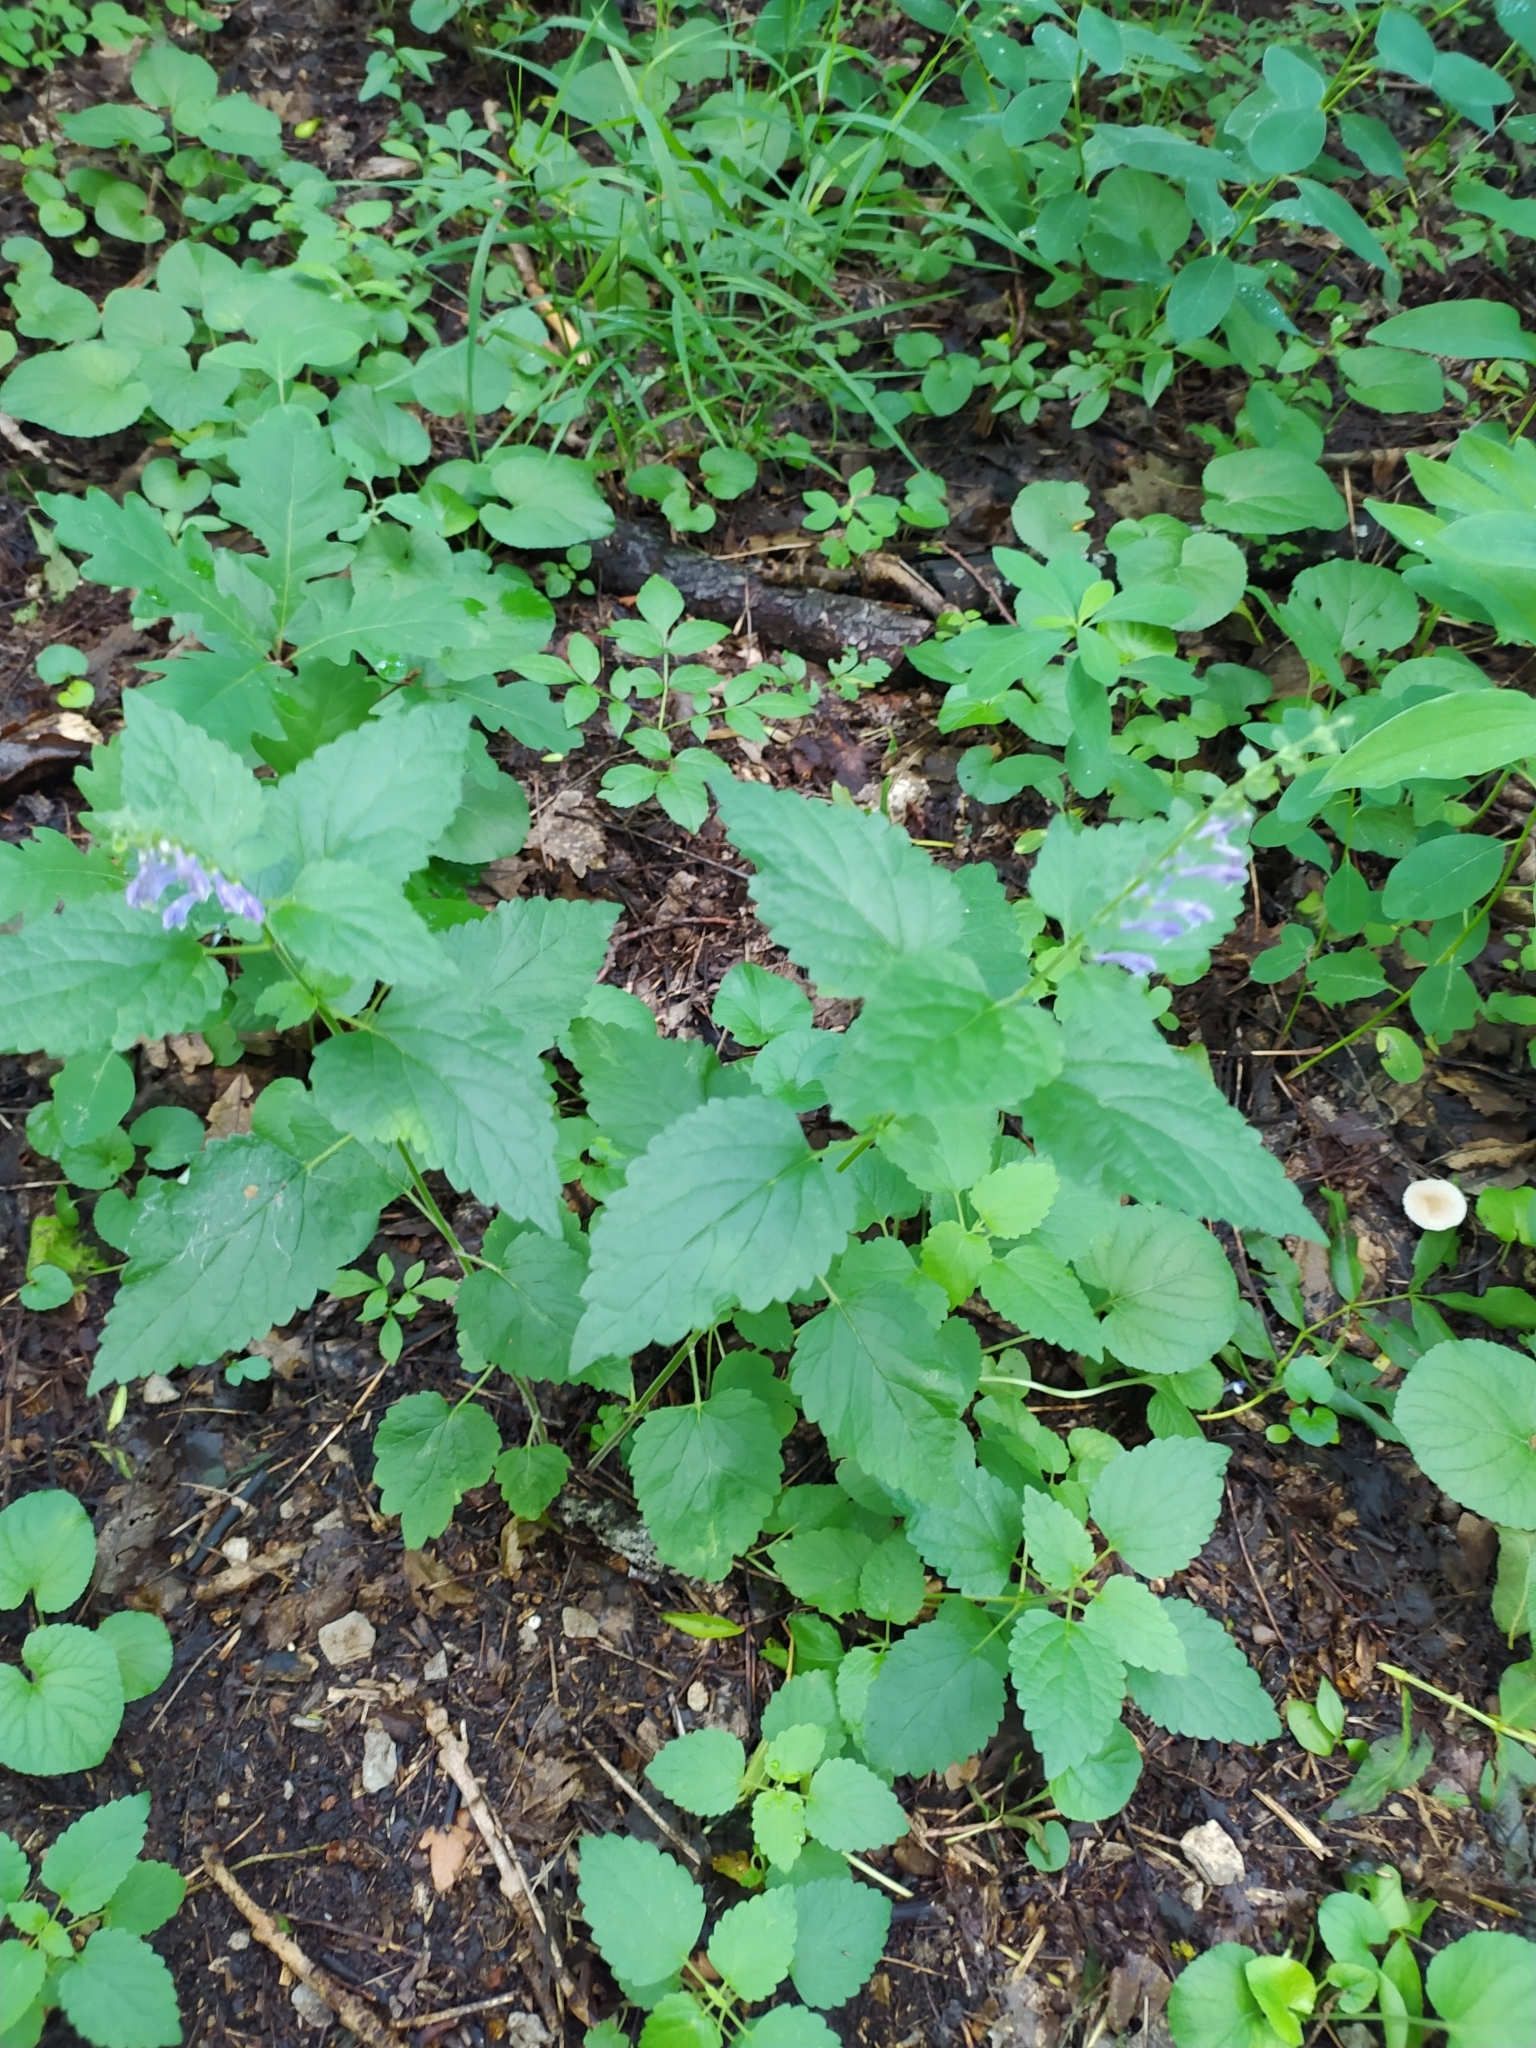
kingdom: Plantae
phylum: Tracheophyta
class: Magnoliopsida
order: Lamiales
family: Lamiaceae
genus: Scutellaria
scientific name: Scutellaria altissima
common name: Somerset skullcap
